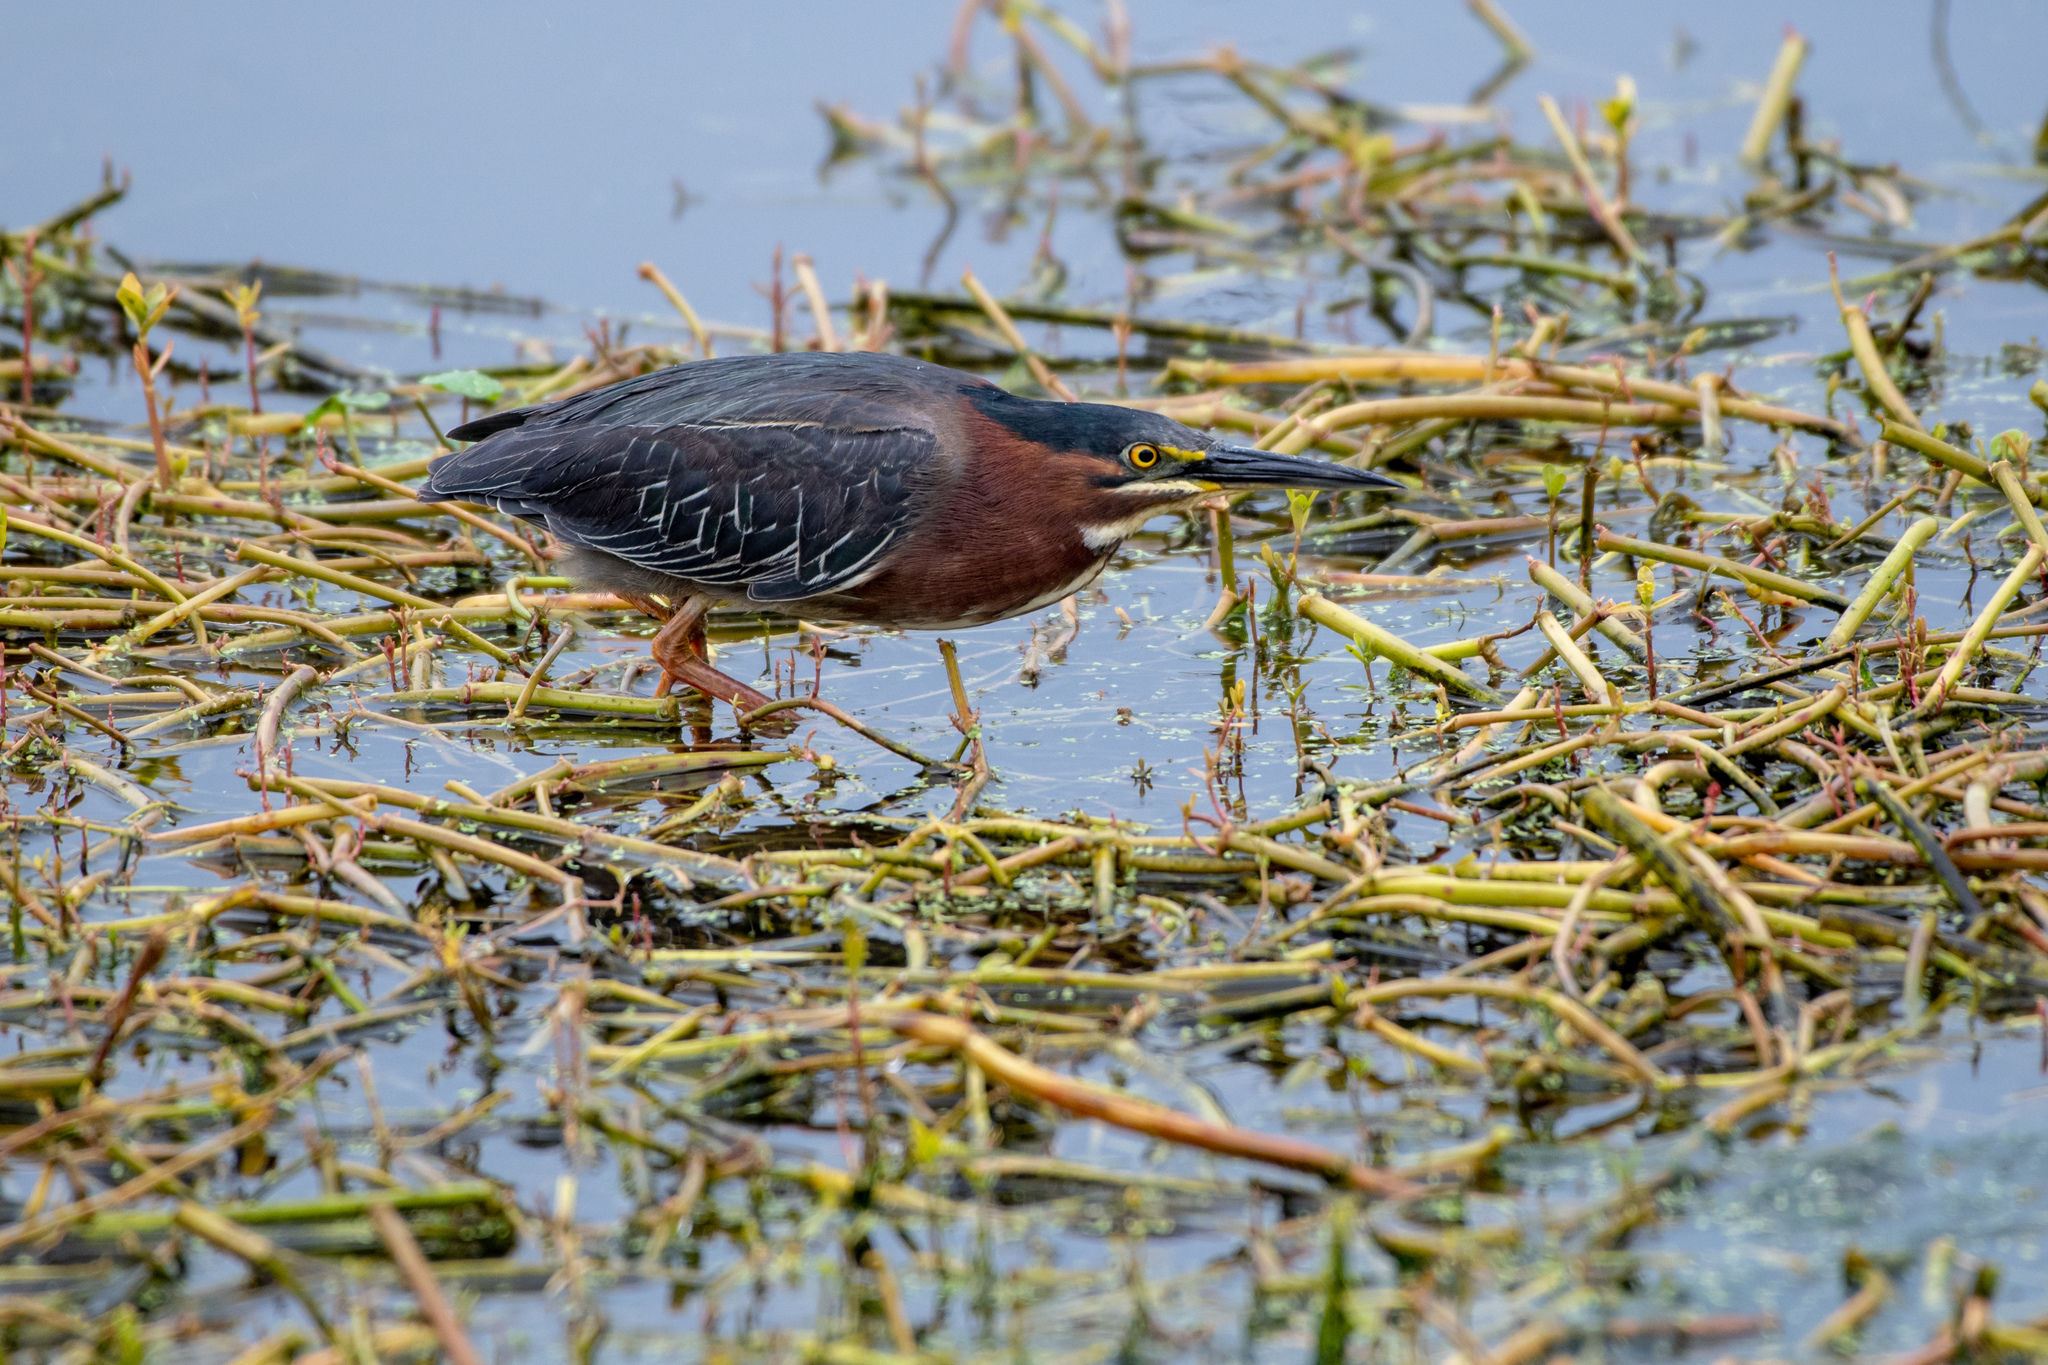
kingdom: Animalia
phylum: Chordata
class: Aves
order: Pelecaniformes
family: Ardeidae
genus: Butorides
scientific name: Butorides virescens
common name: Green heron
